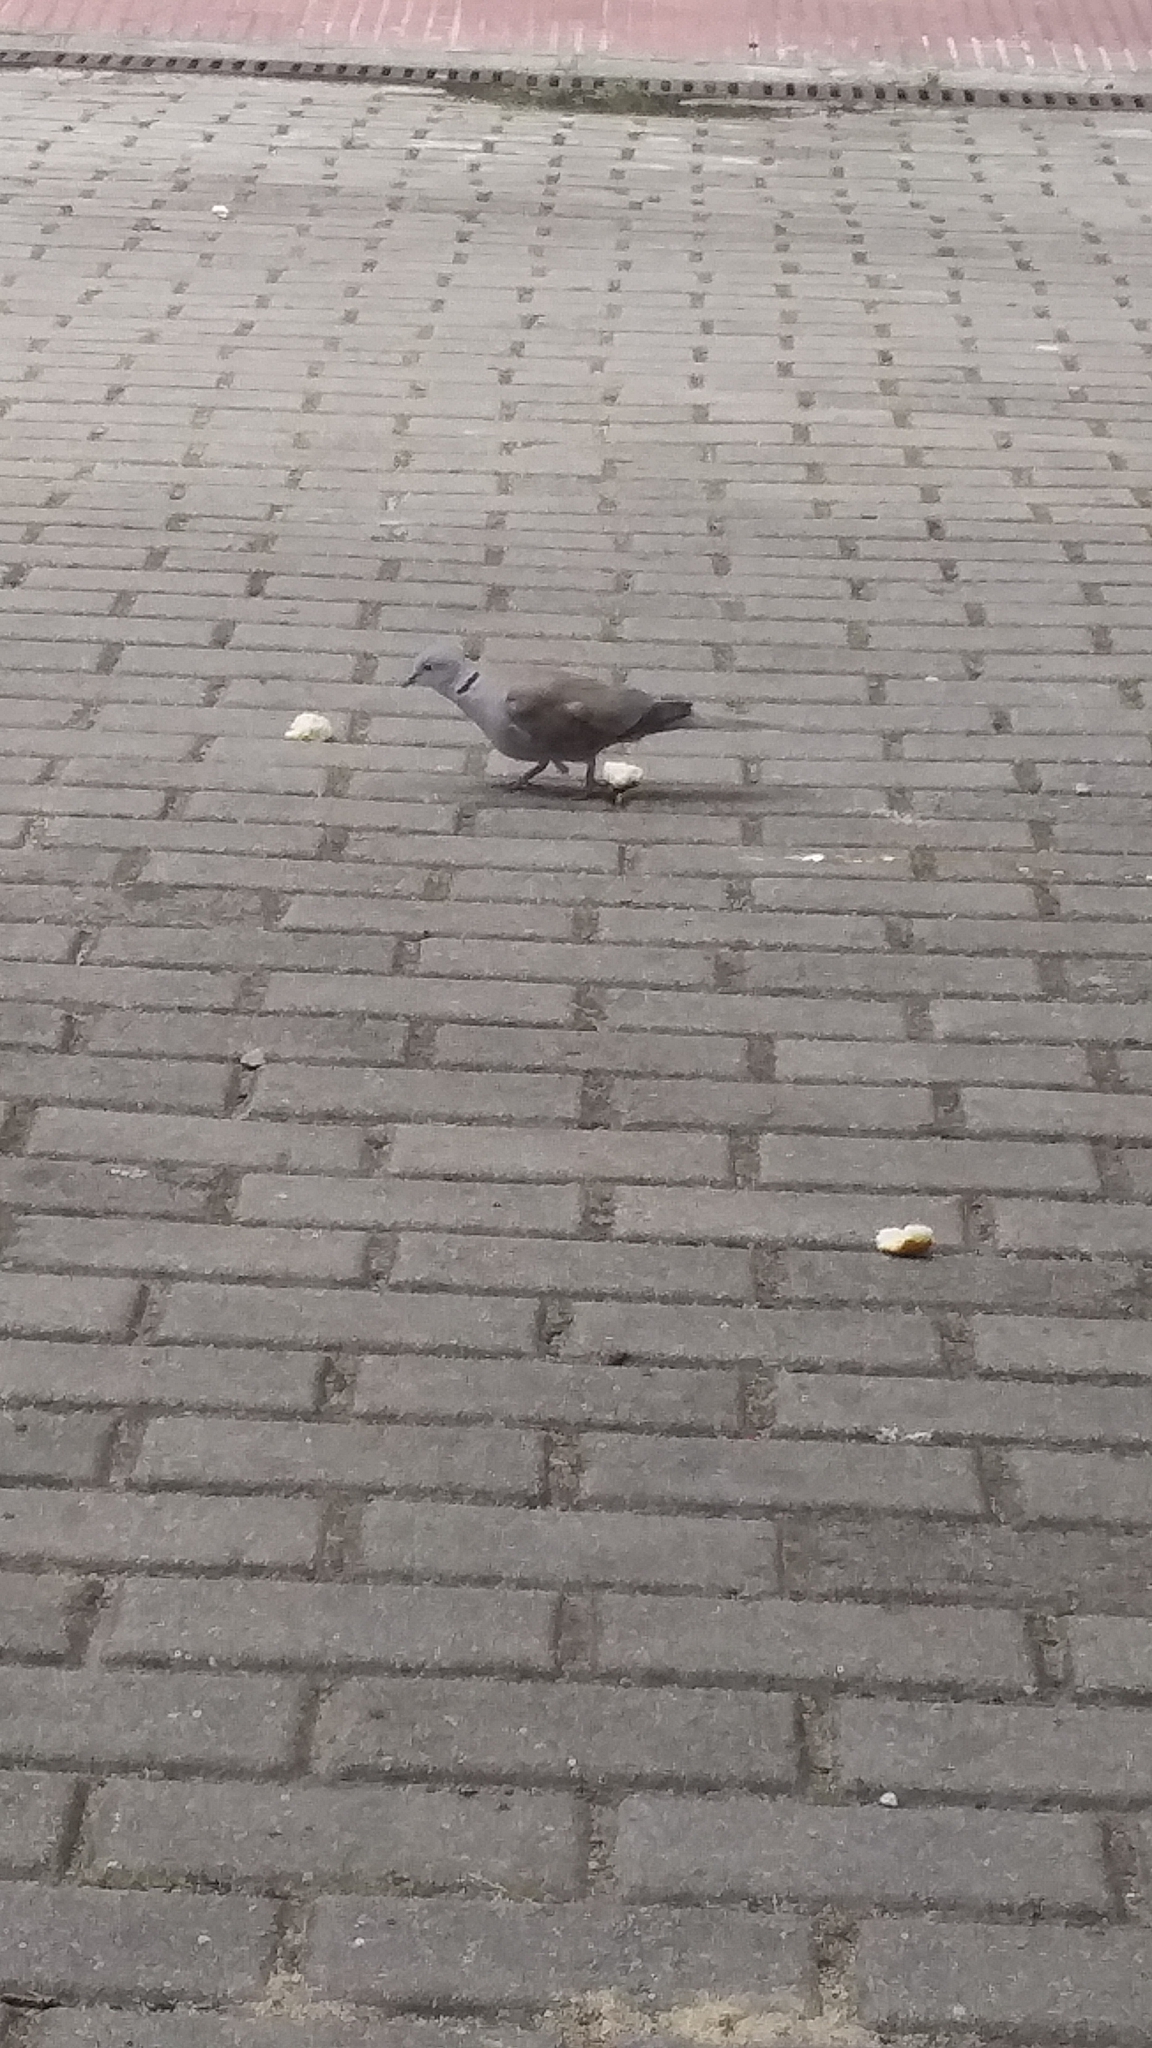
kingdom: Animalia
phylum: Chordata
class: Aves
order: Columbiformes
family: Columbidae
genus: Streptopelia
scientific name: Streptopelia decaocto
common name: Eurasian collared dove
